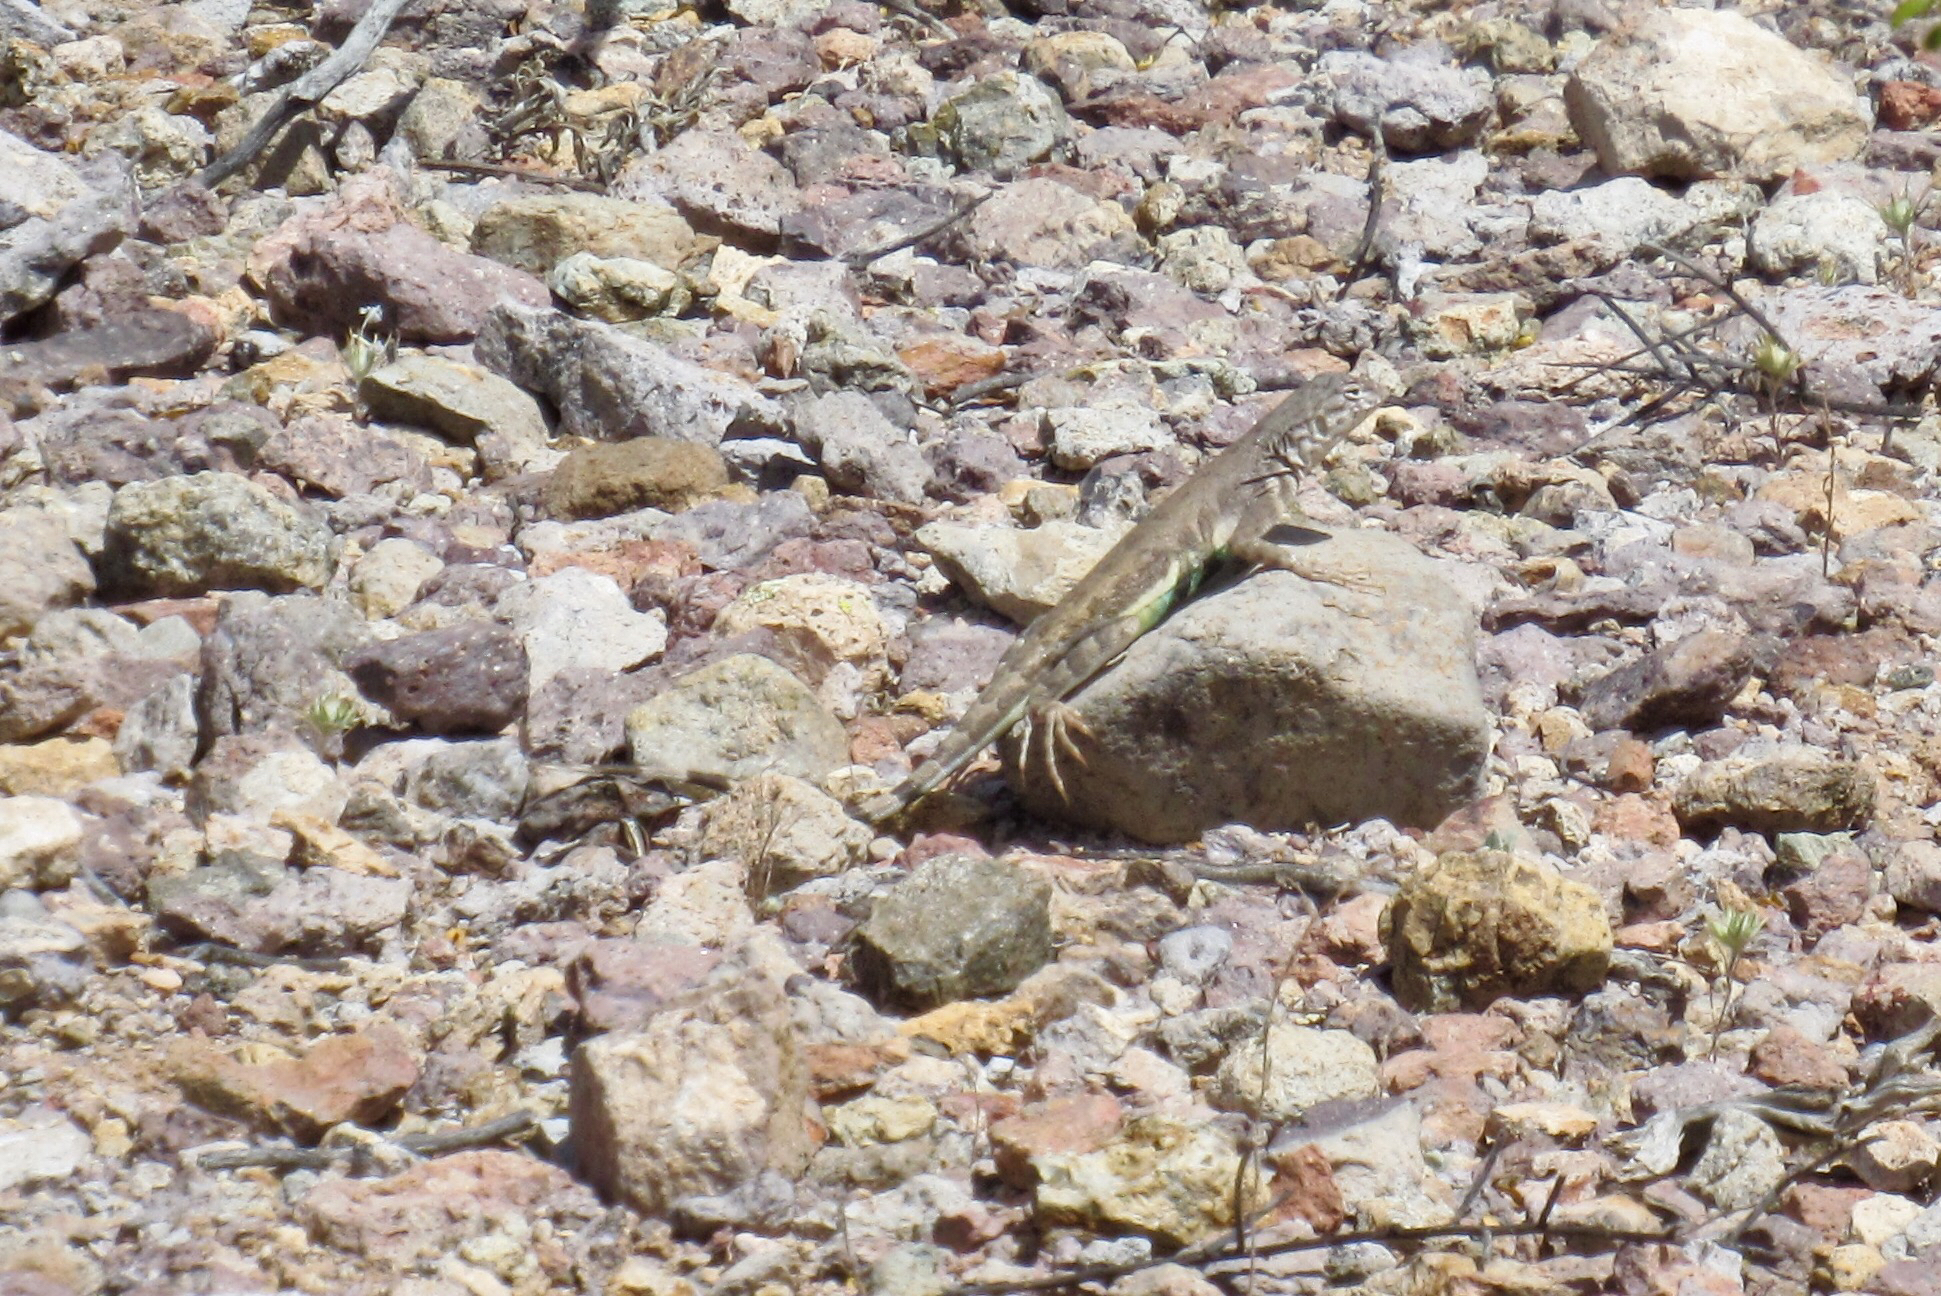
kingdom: Animalia
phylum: Chordata
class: Squamata
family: Phrynosomatidae
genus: Callisaurus
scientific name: Callisaurus draconoides
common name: Zebra-tailed lizard
